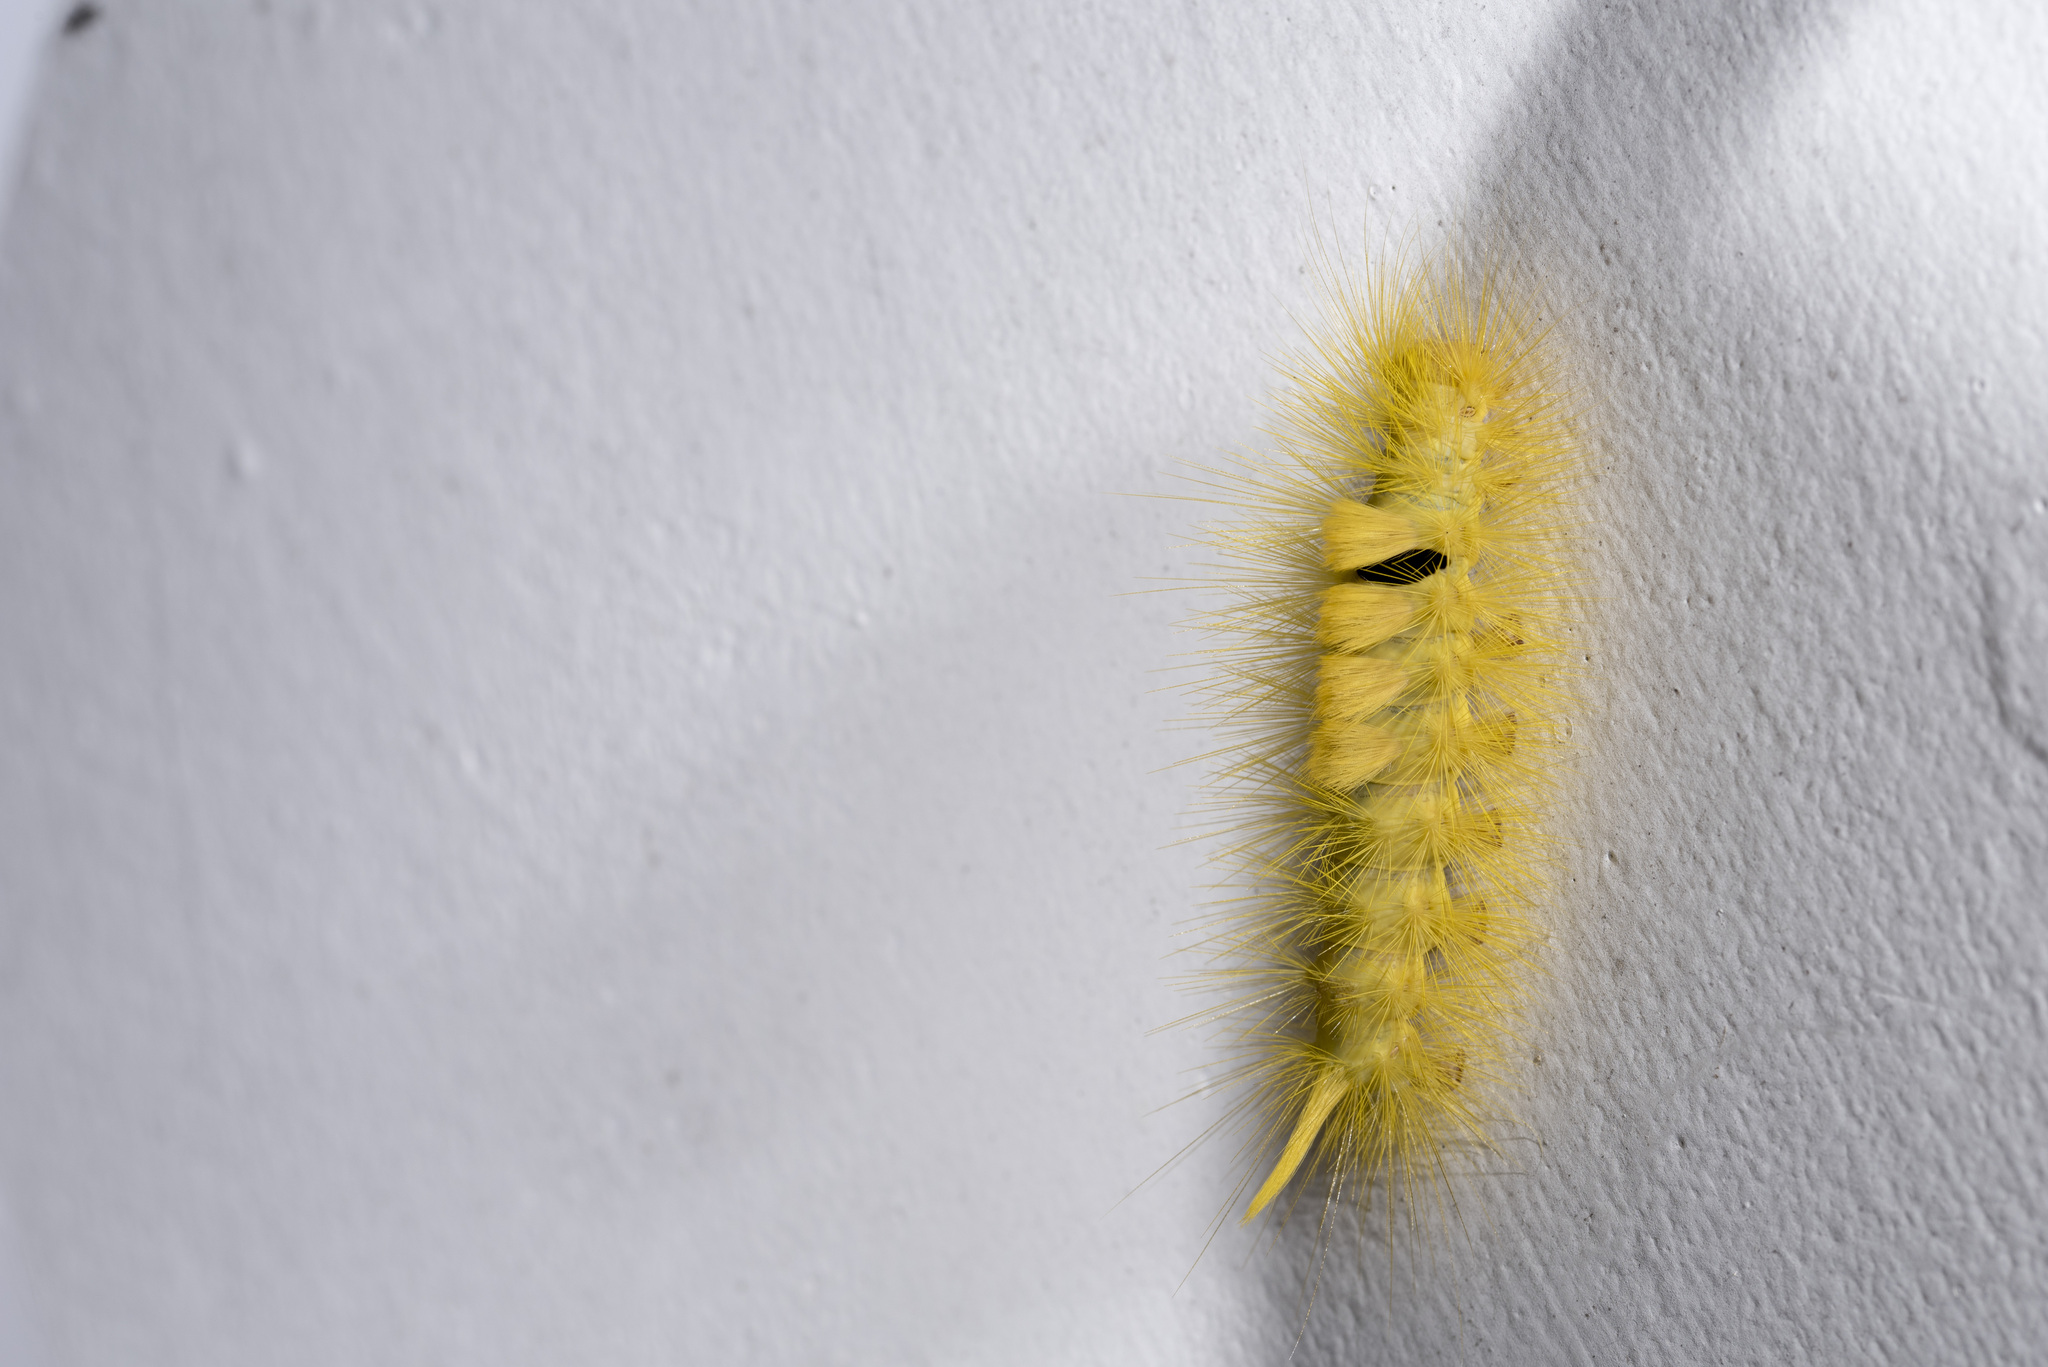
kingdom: Animalia
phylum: Arthropoda
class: Insecta
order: Lepidoptera
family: Erebidae
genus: Calliteara
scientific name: Calliteara horishanella
